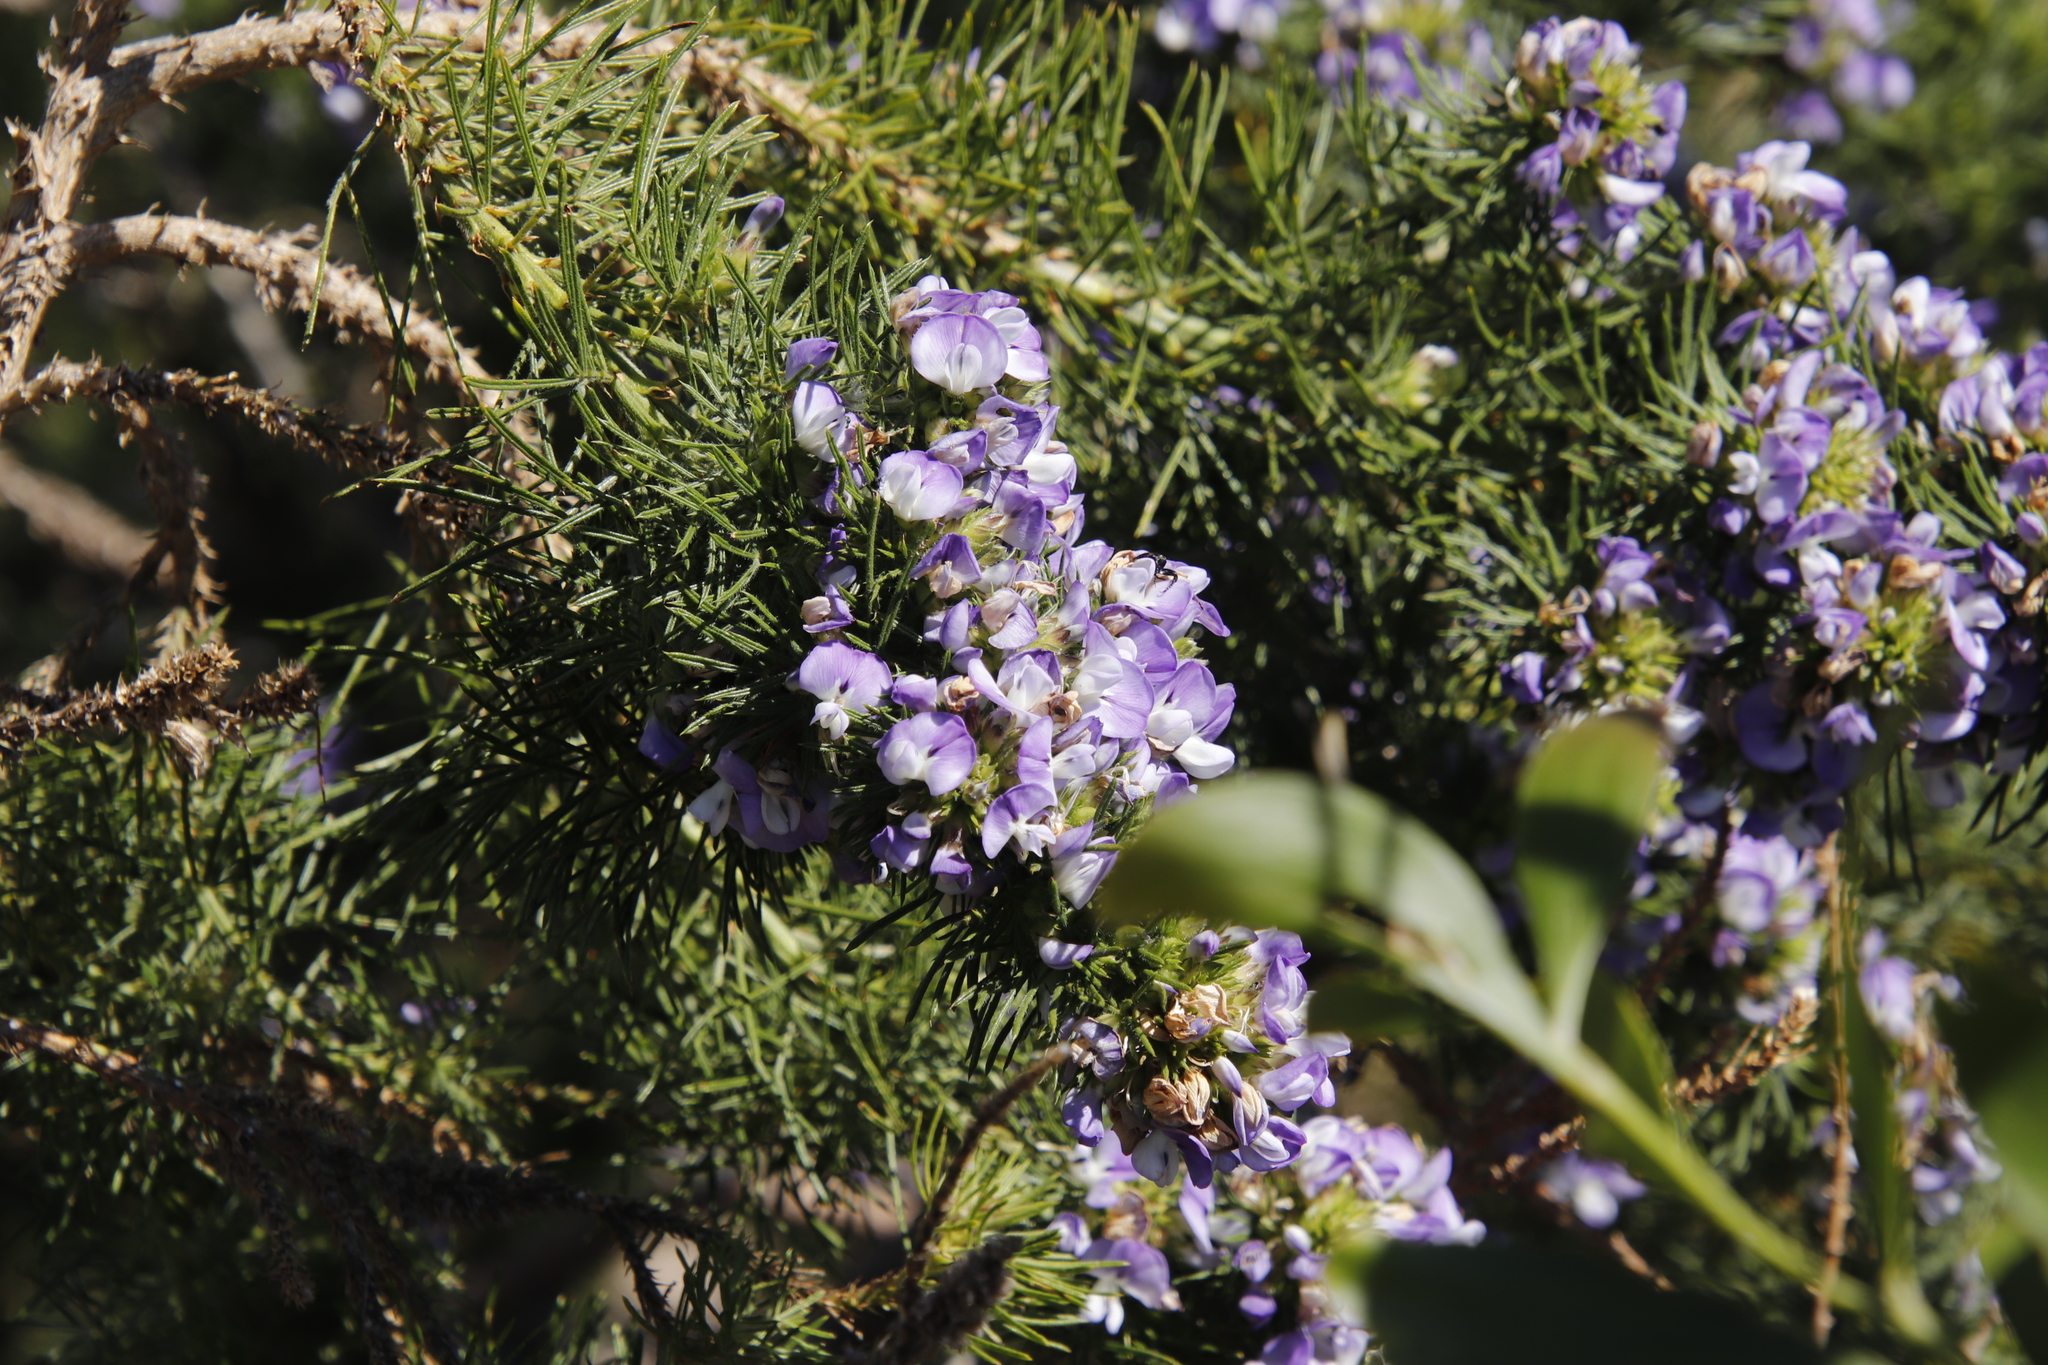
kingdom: Plantae
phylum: Tracheophyta
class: Magnoliopsida
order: Fabales
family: Fabaceae
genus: Psoralea
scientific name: Psoralea pinnata
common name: African scurfpea
